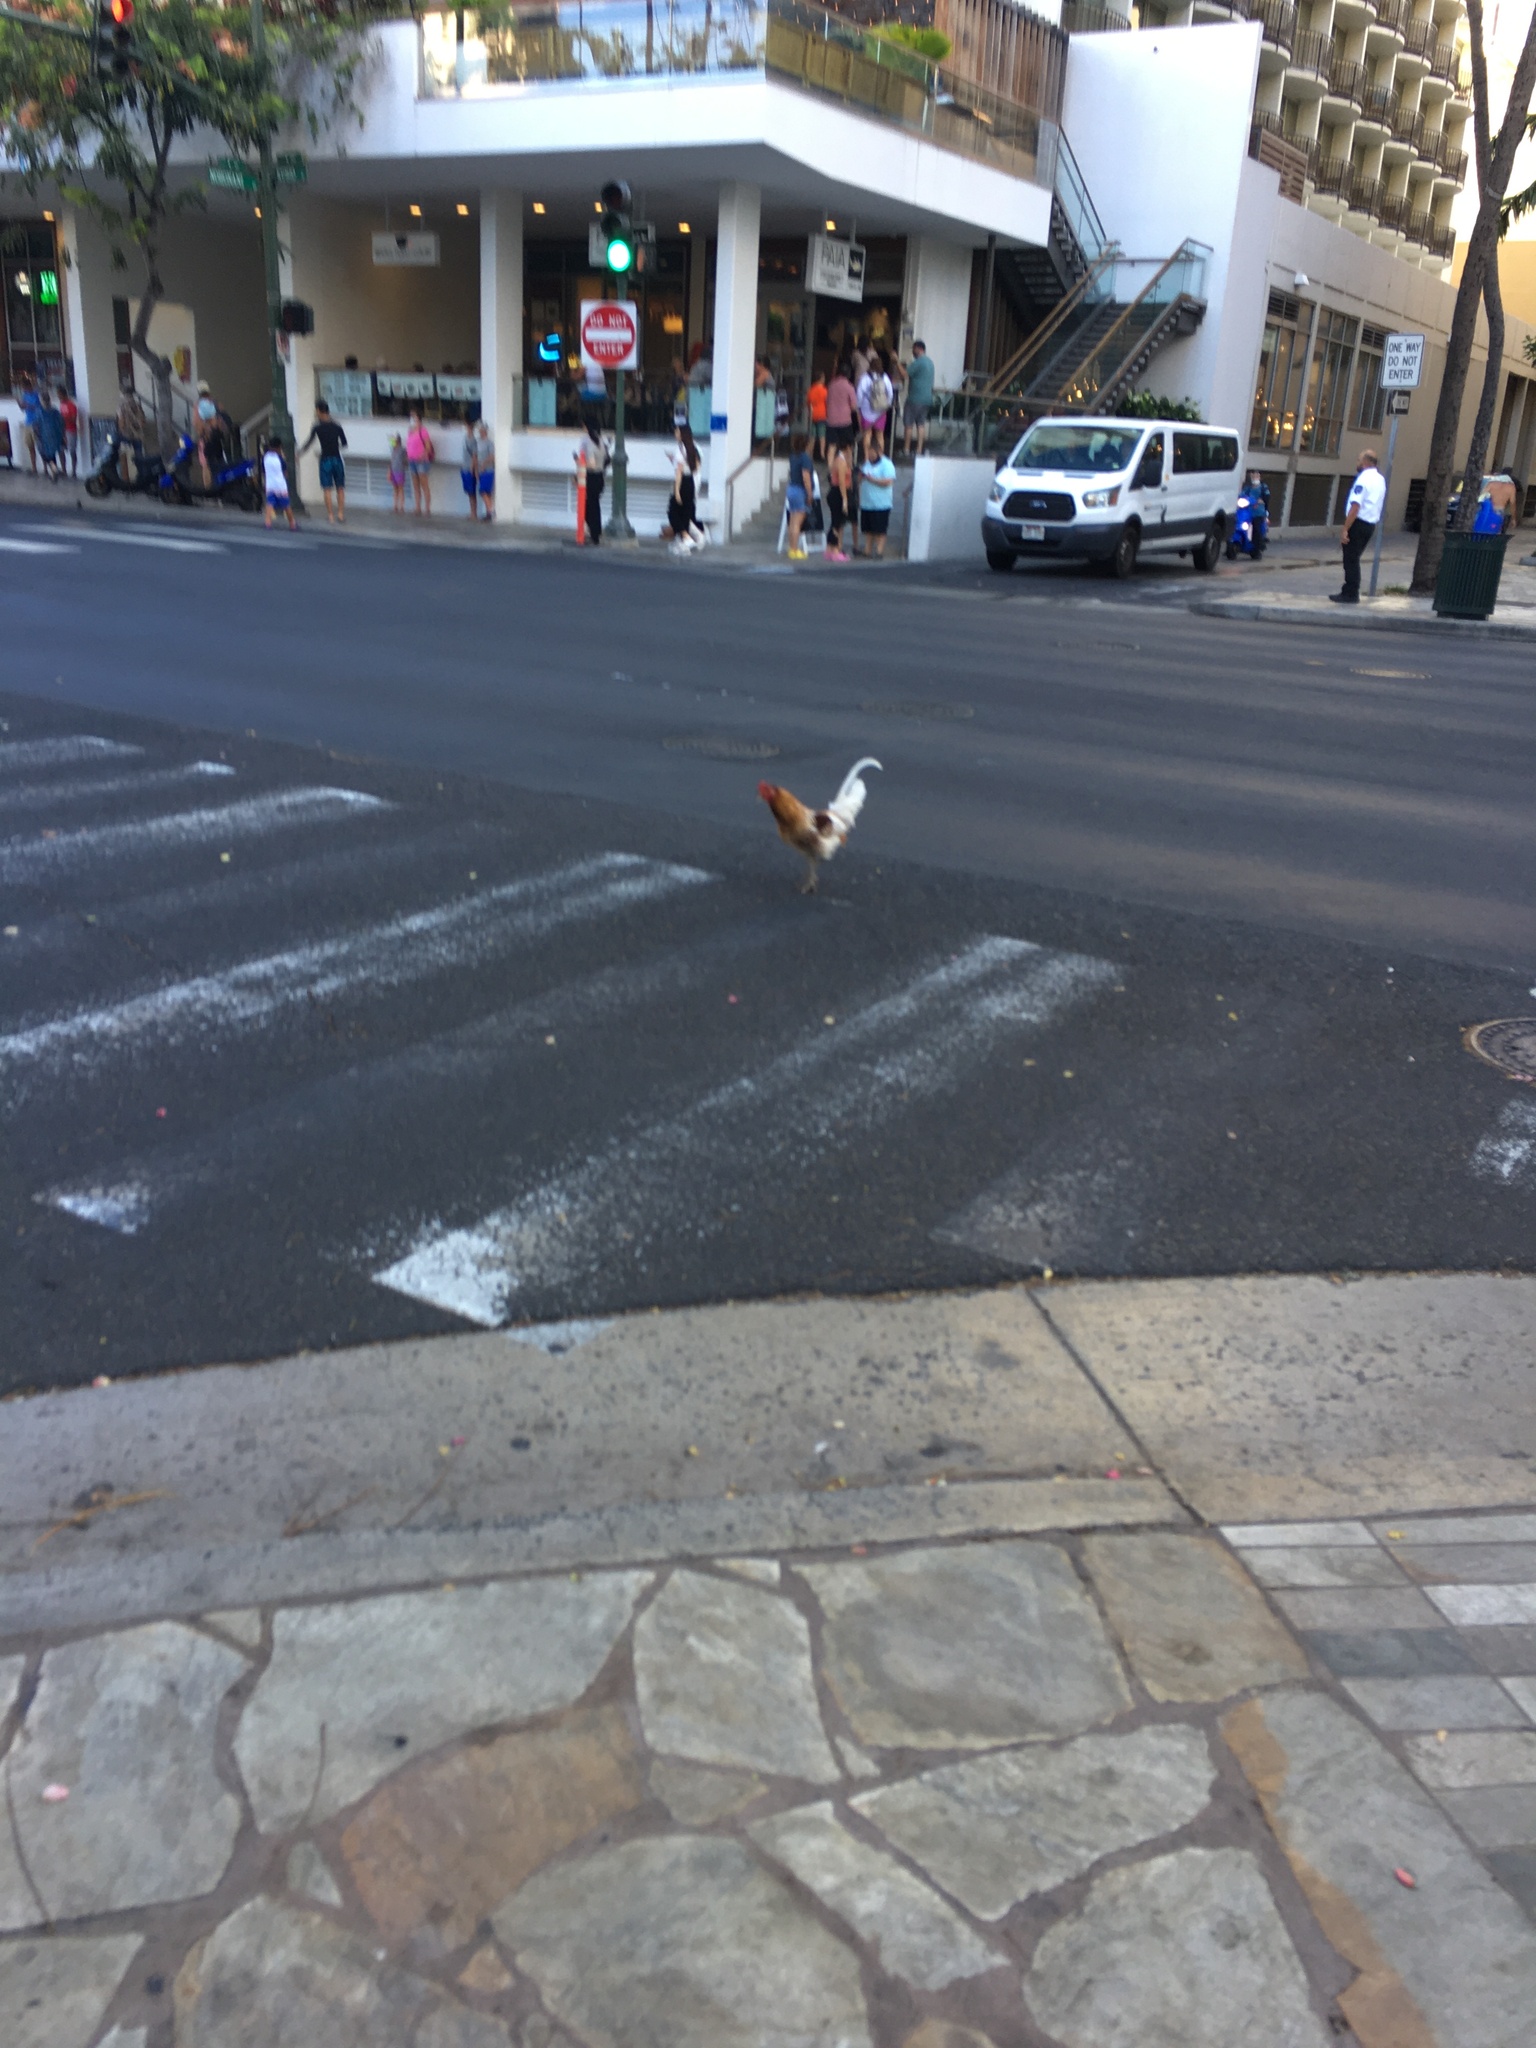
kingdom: Animalia
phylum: Chordata
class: Aves
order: Galliformes
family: Phasianidae
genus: Gallus
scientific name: Gallus gallus
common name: Red junglefowl
